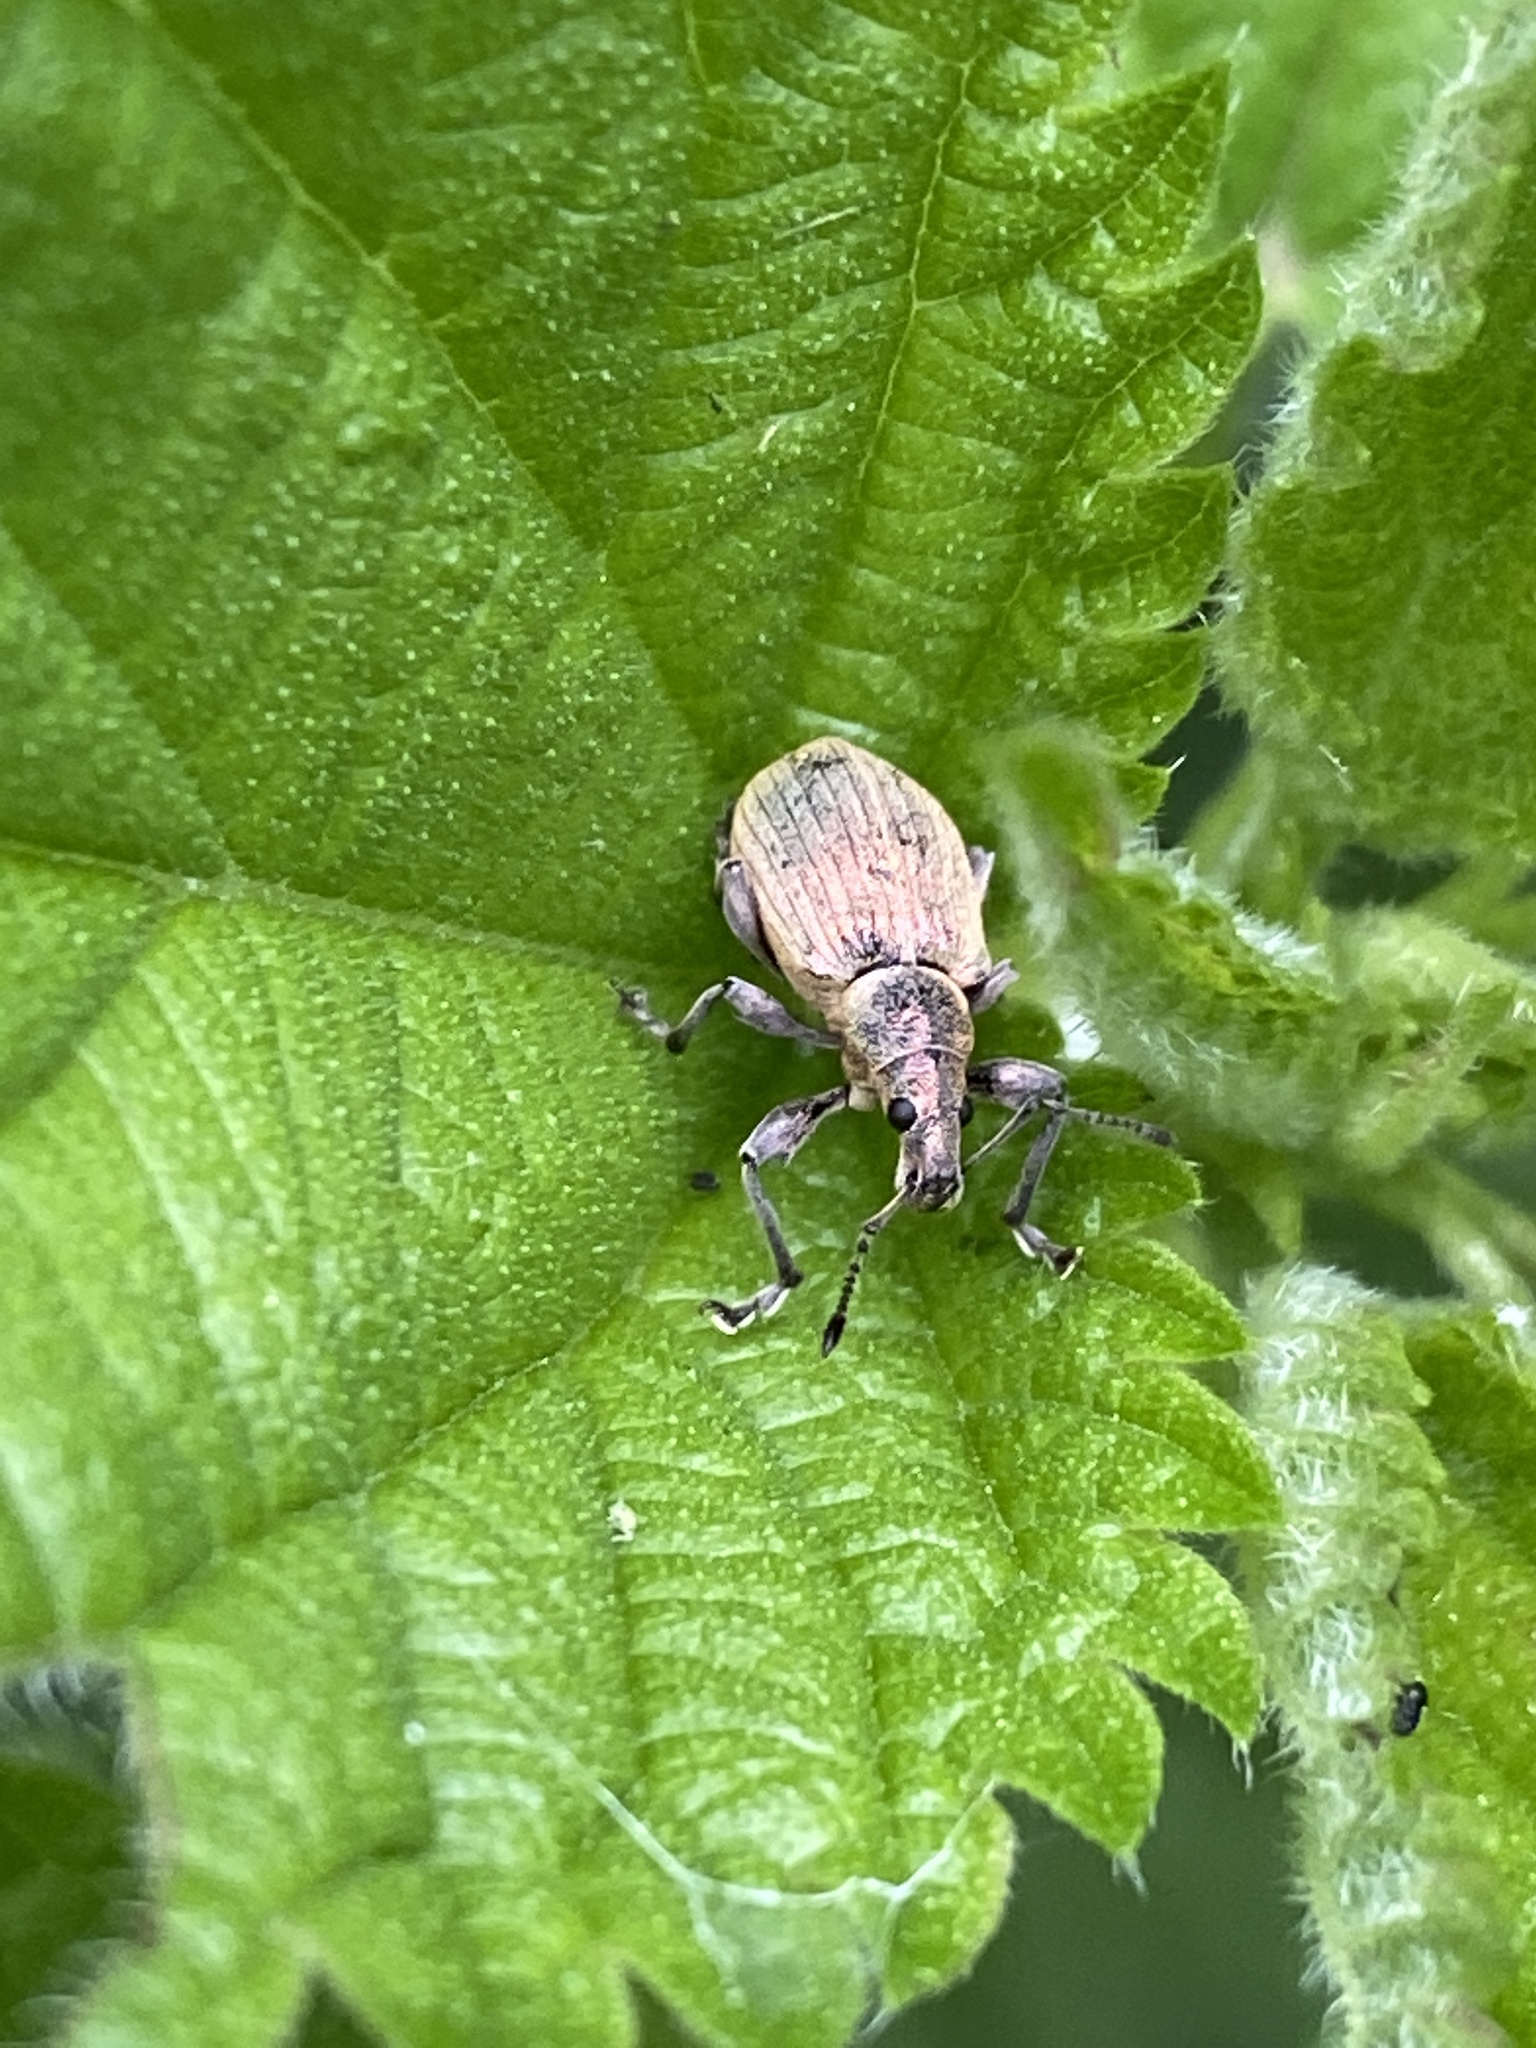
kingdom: Animalia
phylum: Arthropoda
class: Insecta
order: Coleoptera
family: Curculionidae
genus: Phyllobius
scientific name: Phyllobius pomaceus
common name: Green nettle weevil
